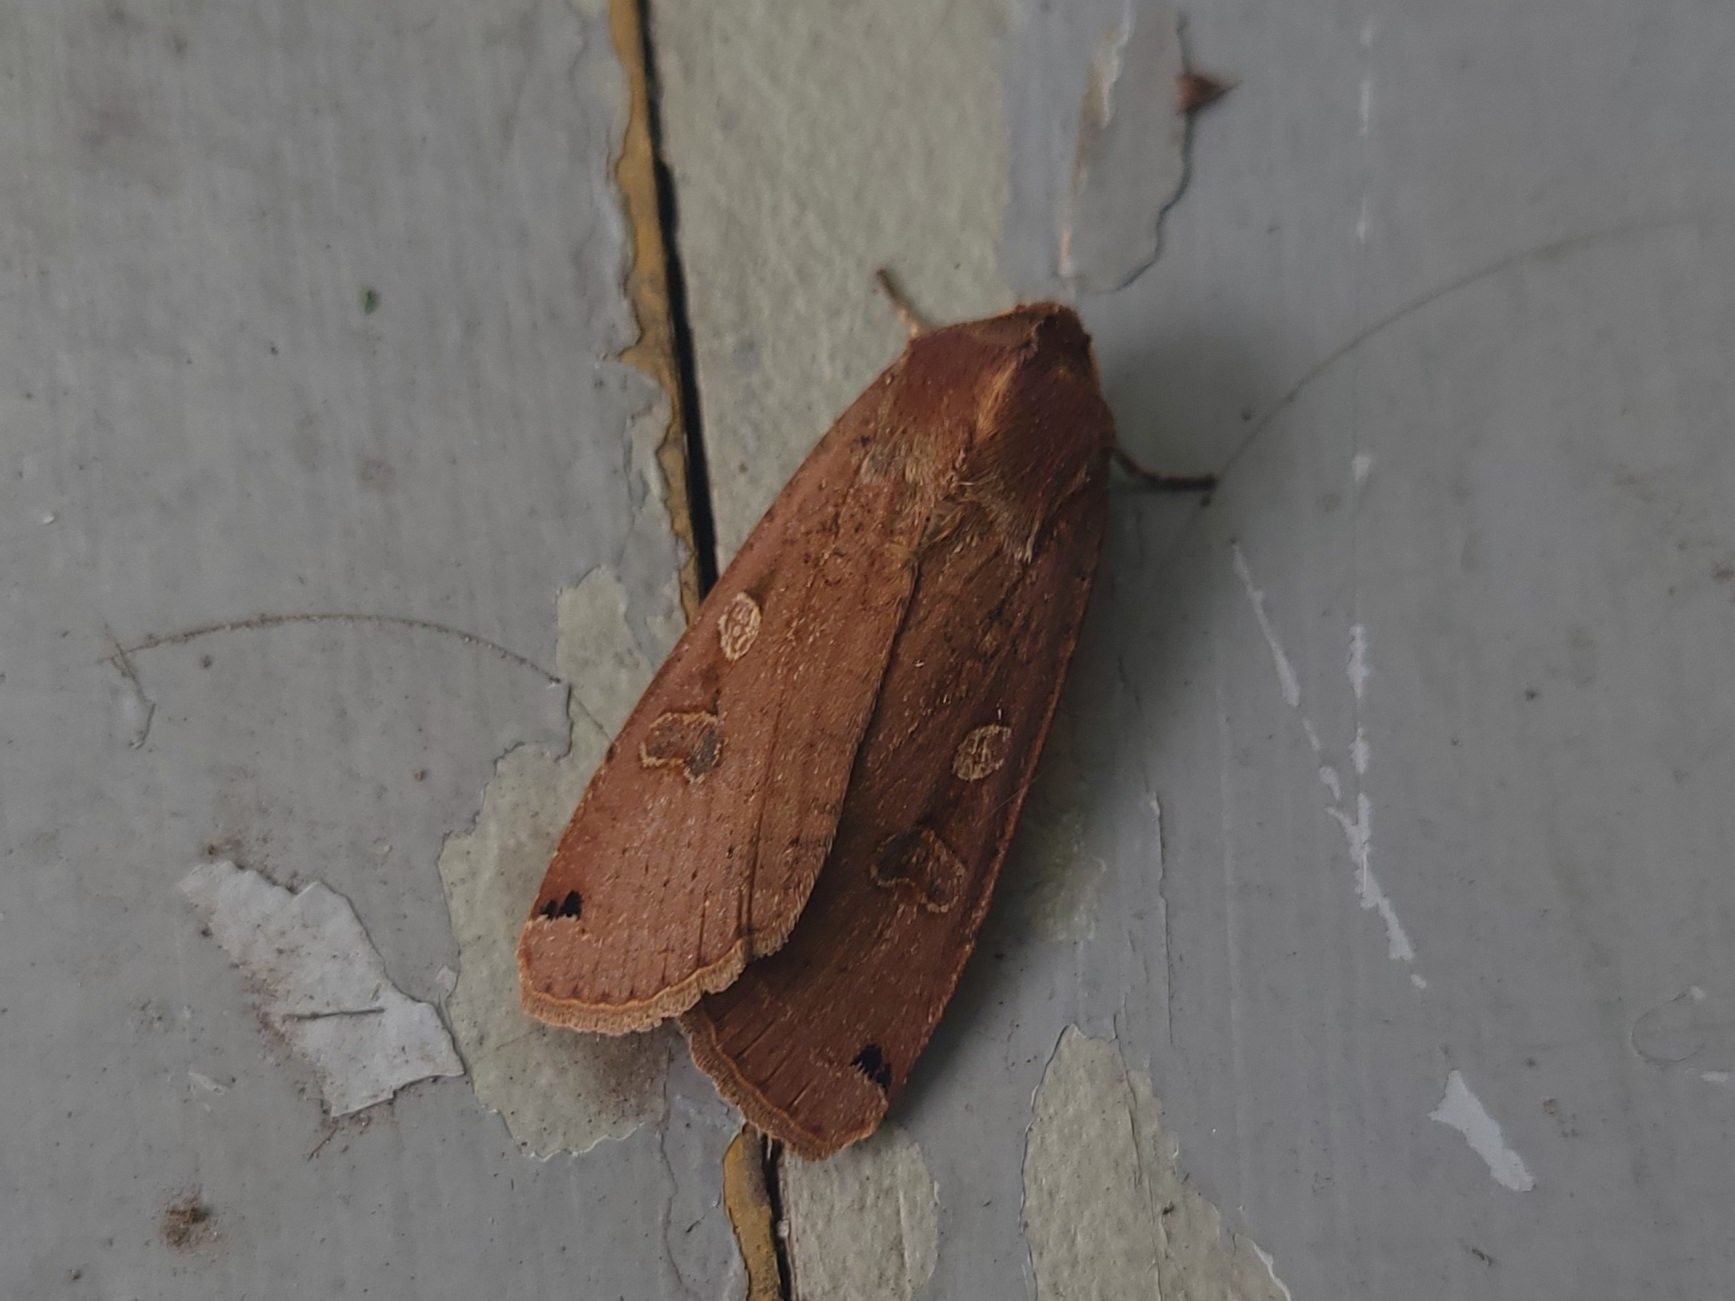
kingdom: Animalia
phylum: Arthropoda
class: Insecta
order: Lepidoptera
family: Noctuidae
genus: Noctua
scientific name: Noctua pronuba
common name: Large yellow underwing
